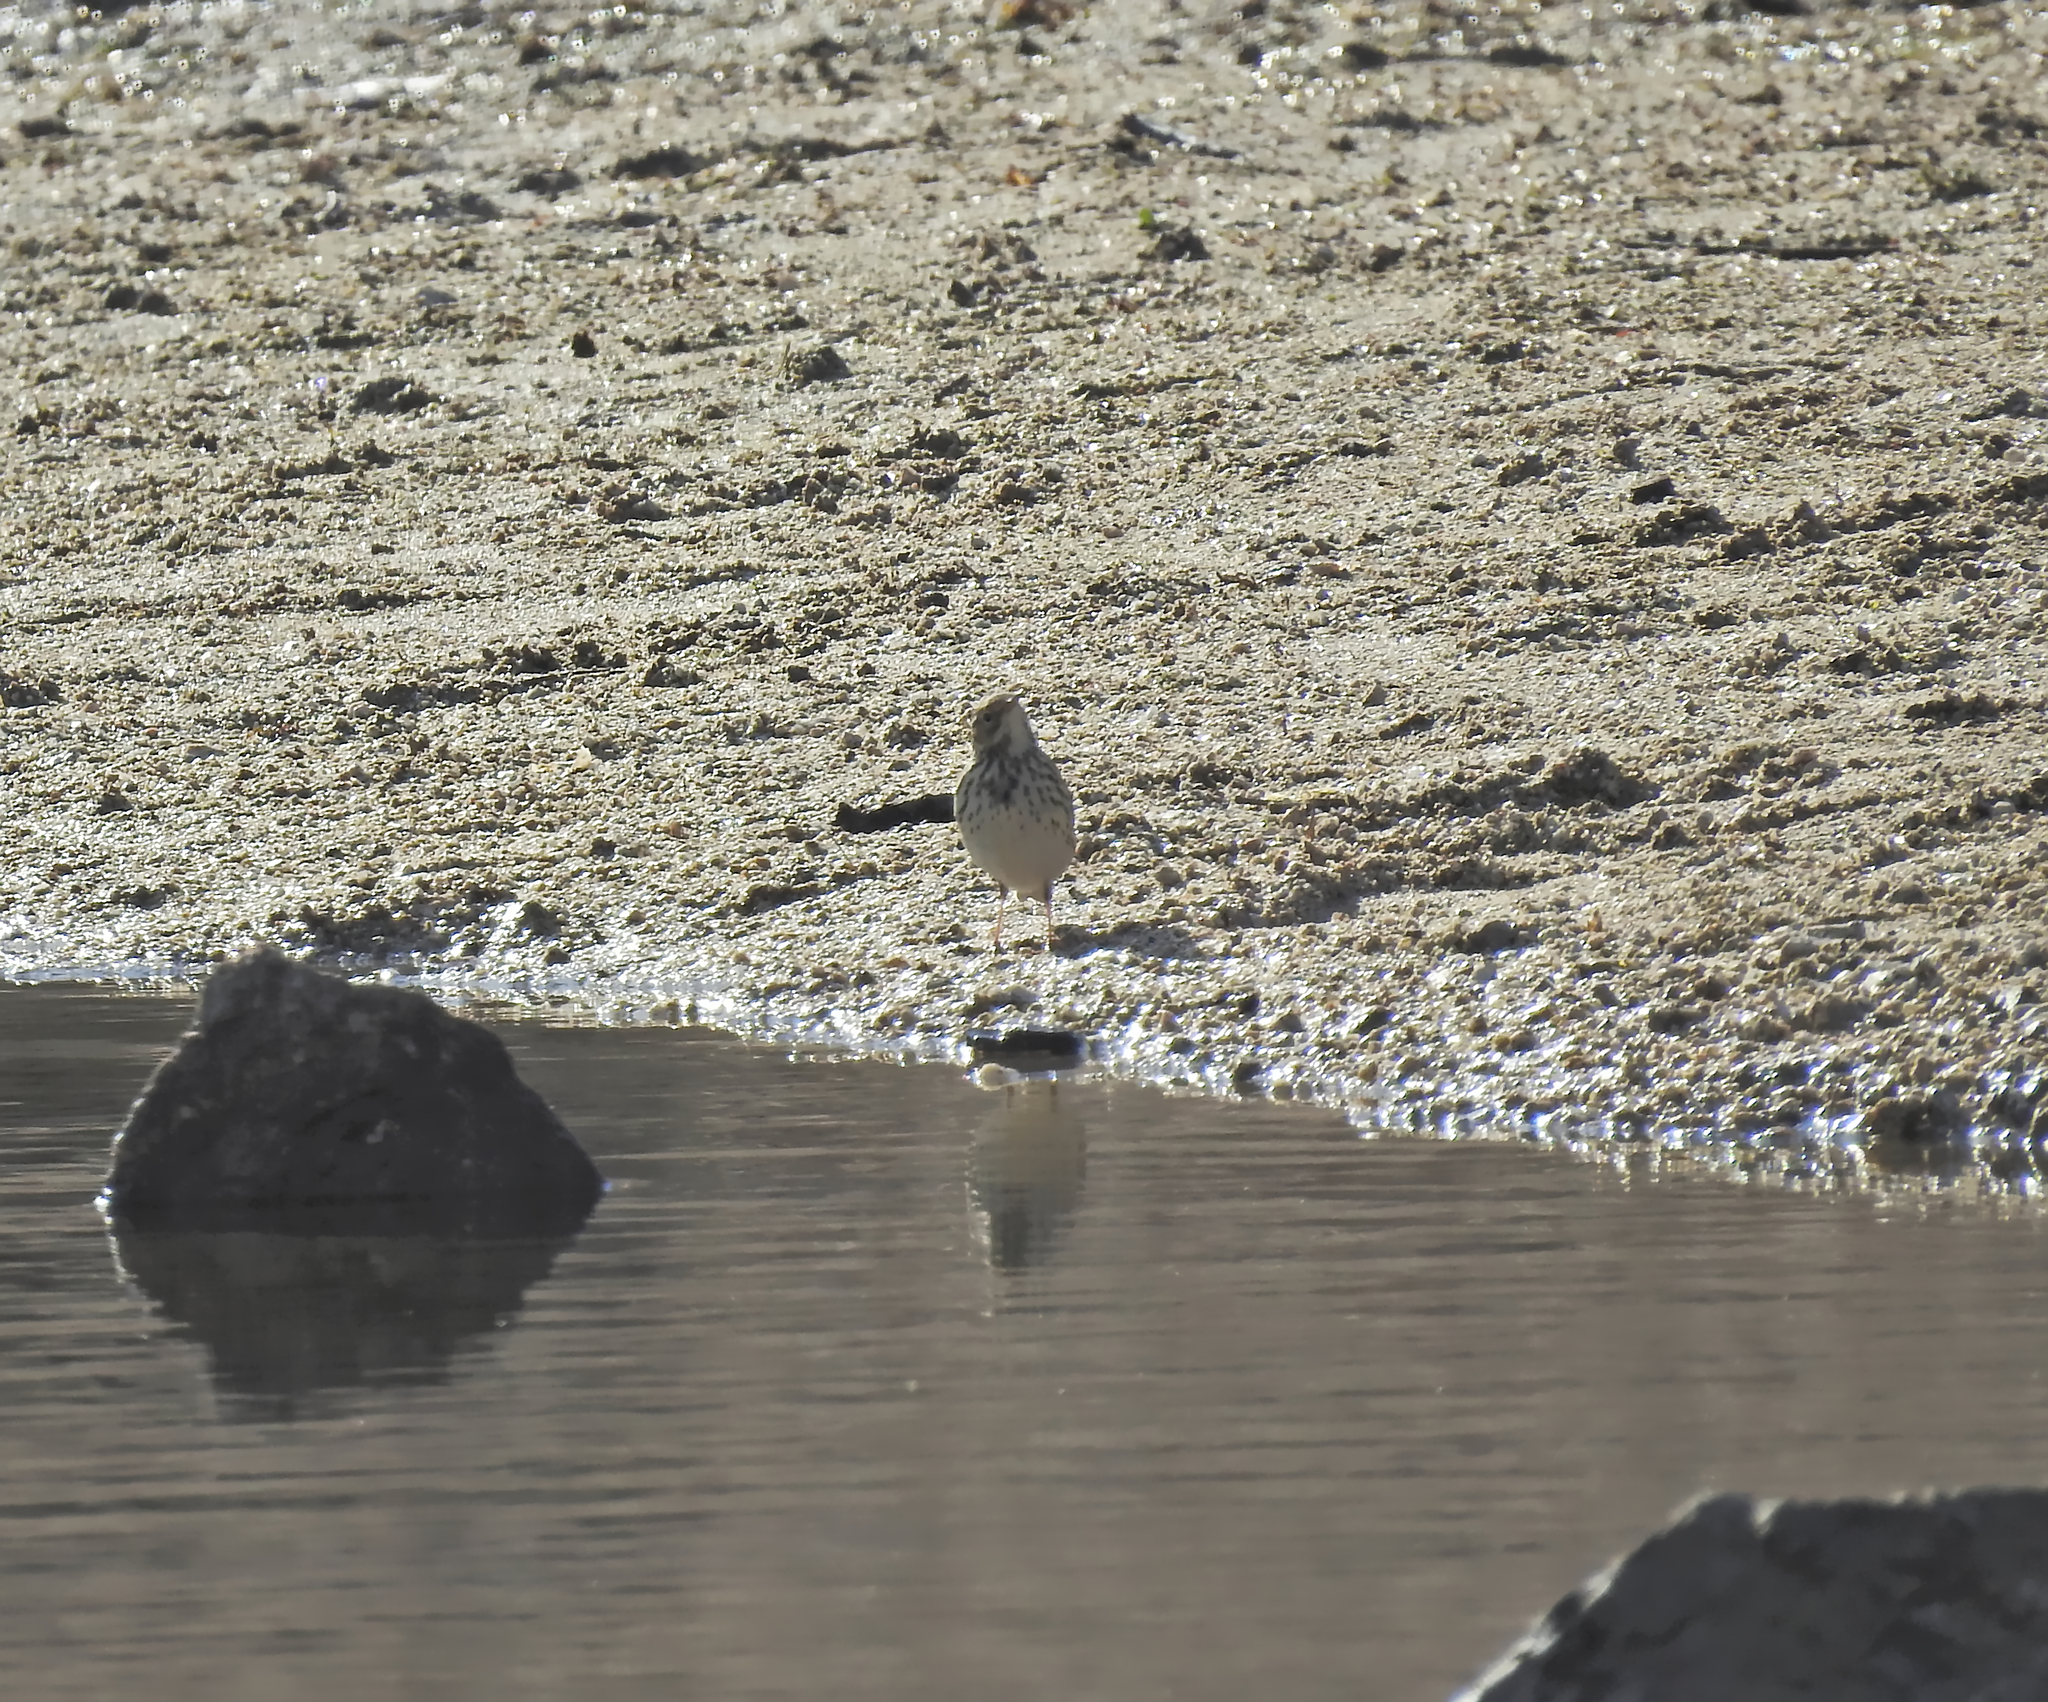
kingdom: Animalia
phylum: Chordata
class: Aves
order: Passeriformes
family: Motacillidae
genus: Anthus
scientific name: Anthus pratensis
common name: Meadow pipit
